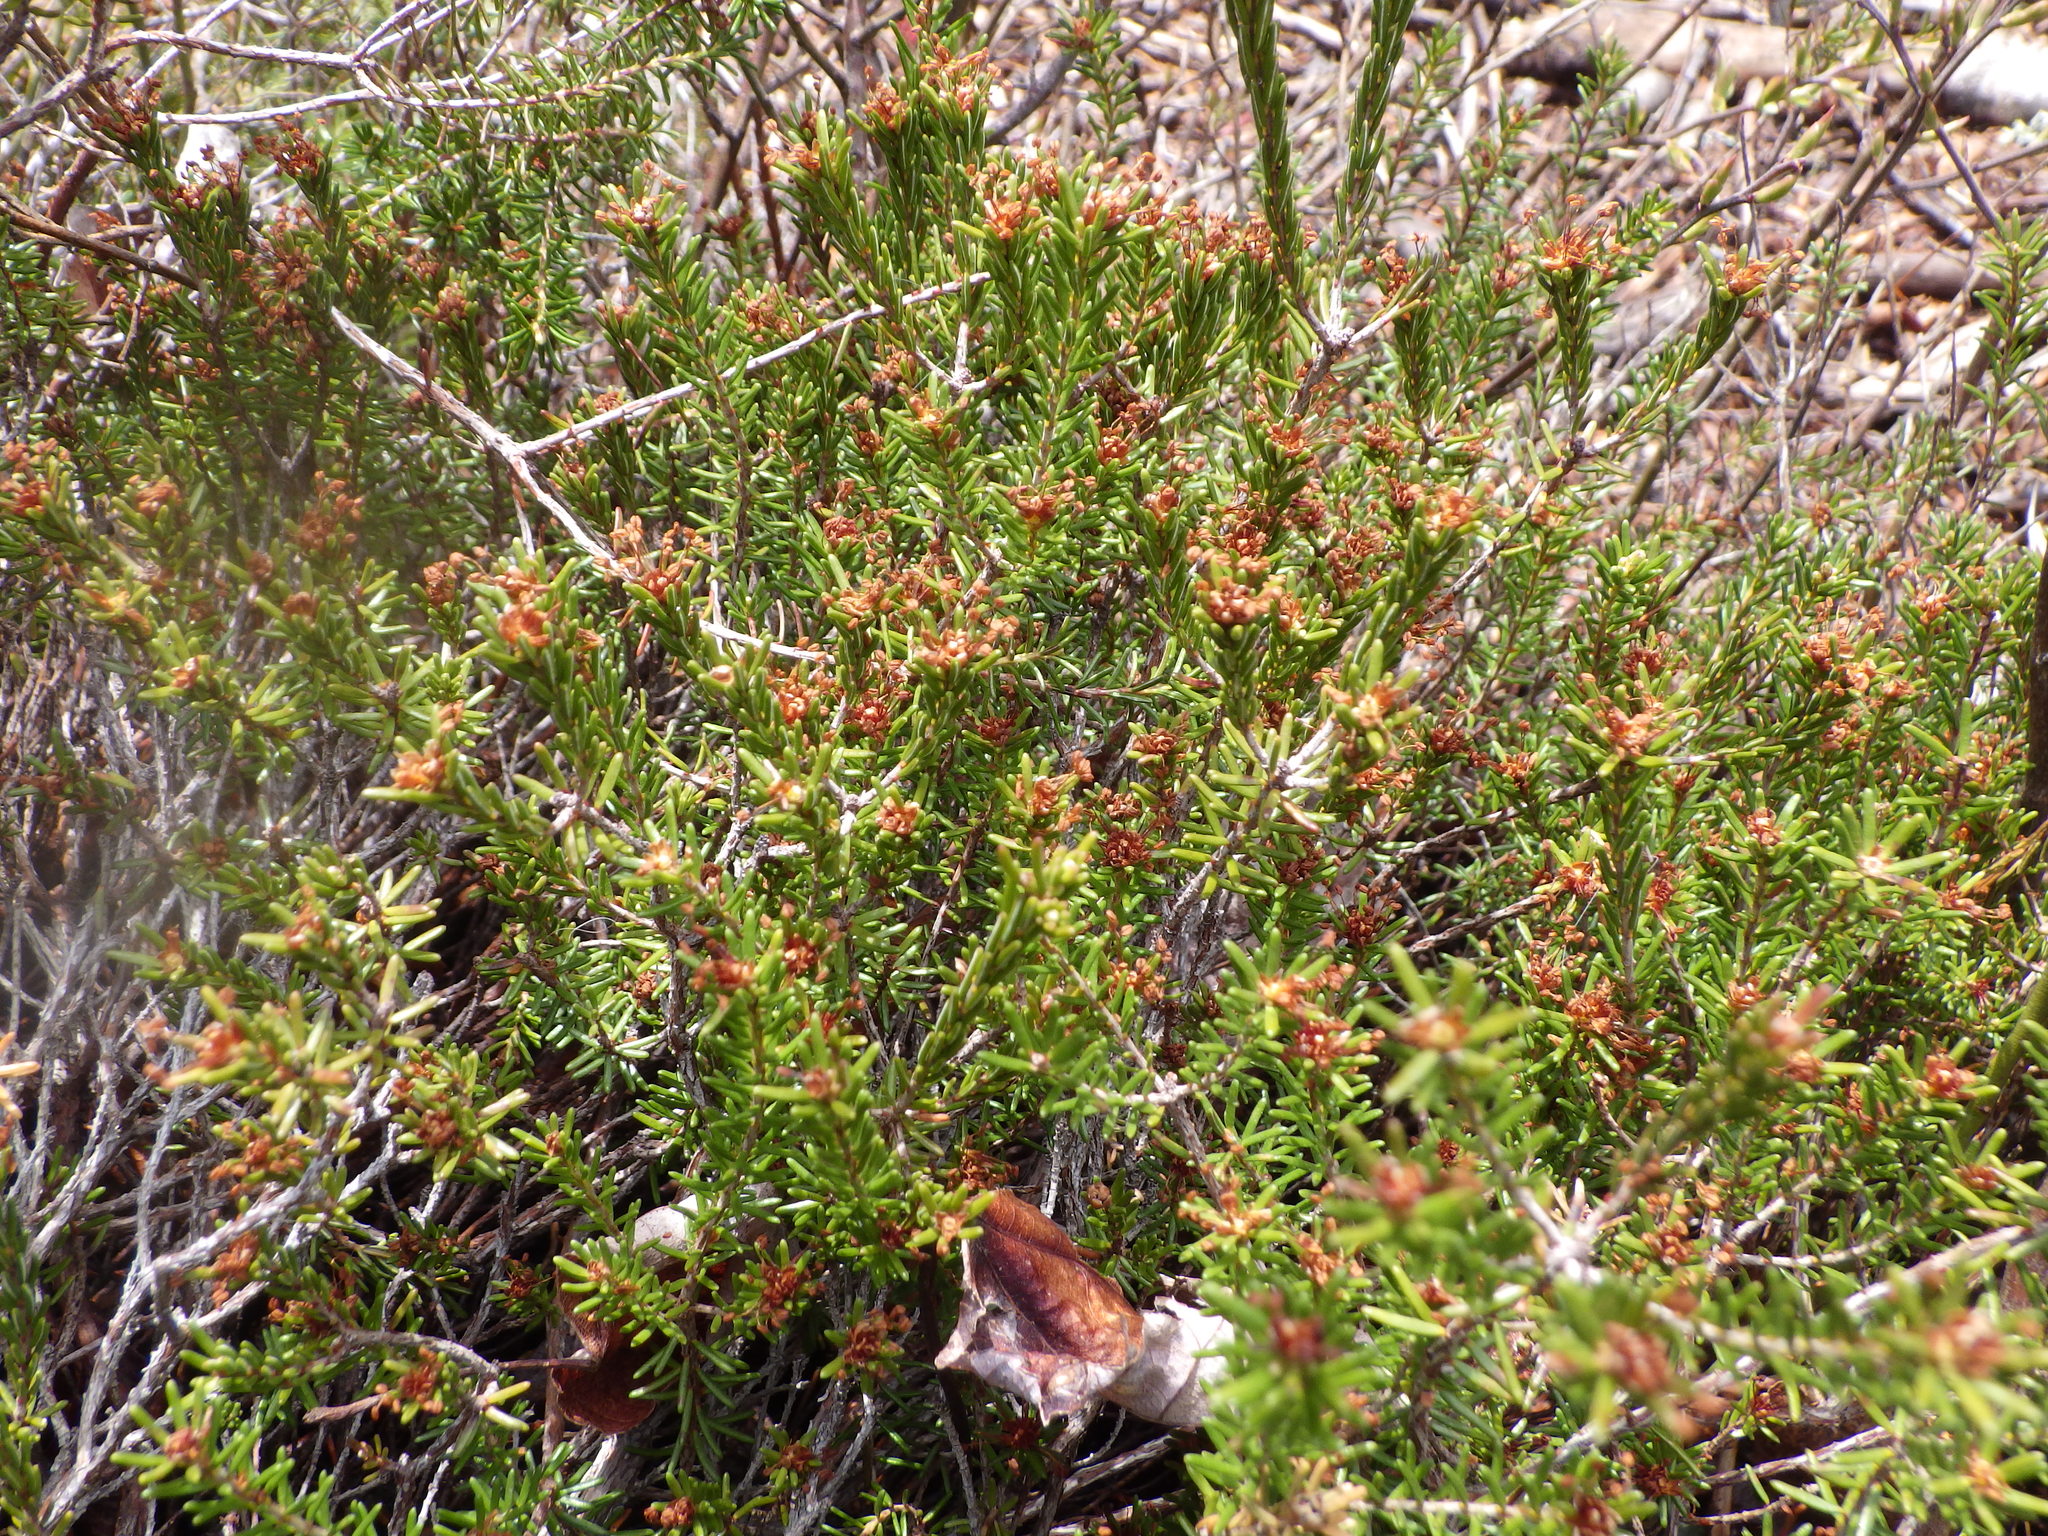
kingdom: Plantae
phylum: Tracheophyta
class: Magnoliopsida
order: Ericales
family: Ericaceae
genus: Corema
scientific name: Corema conradii
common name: Broom-crowberry
